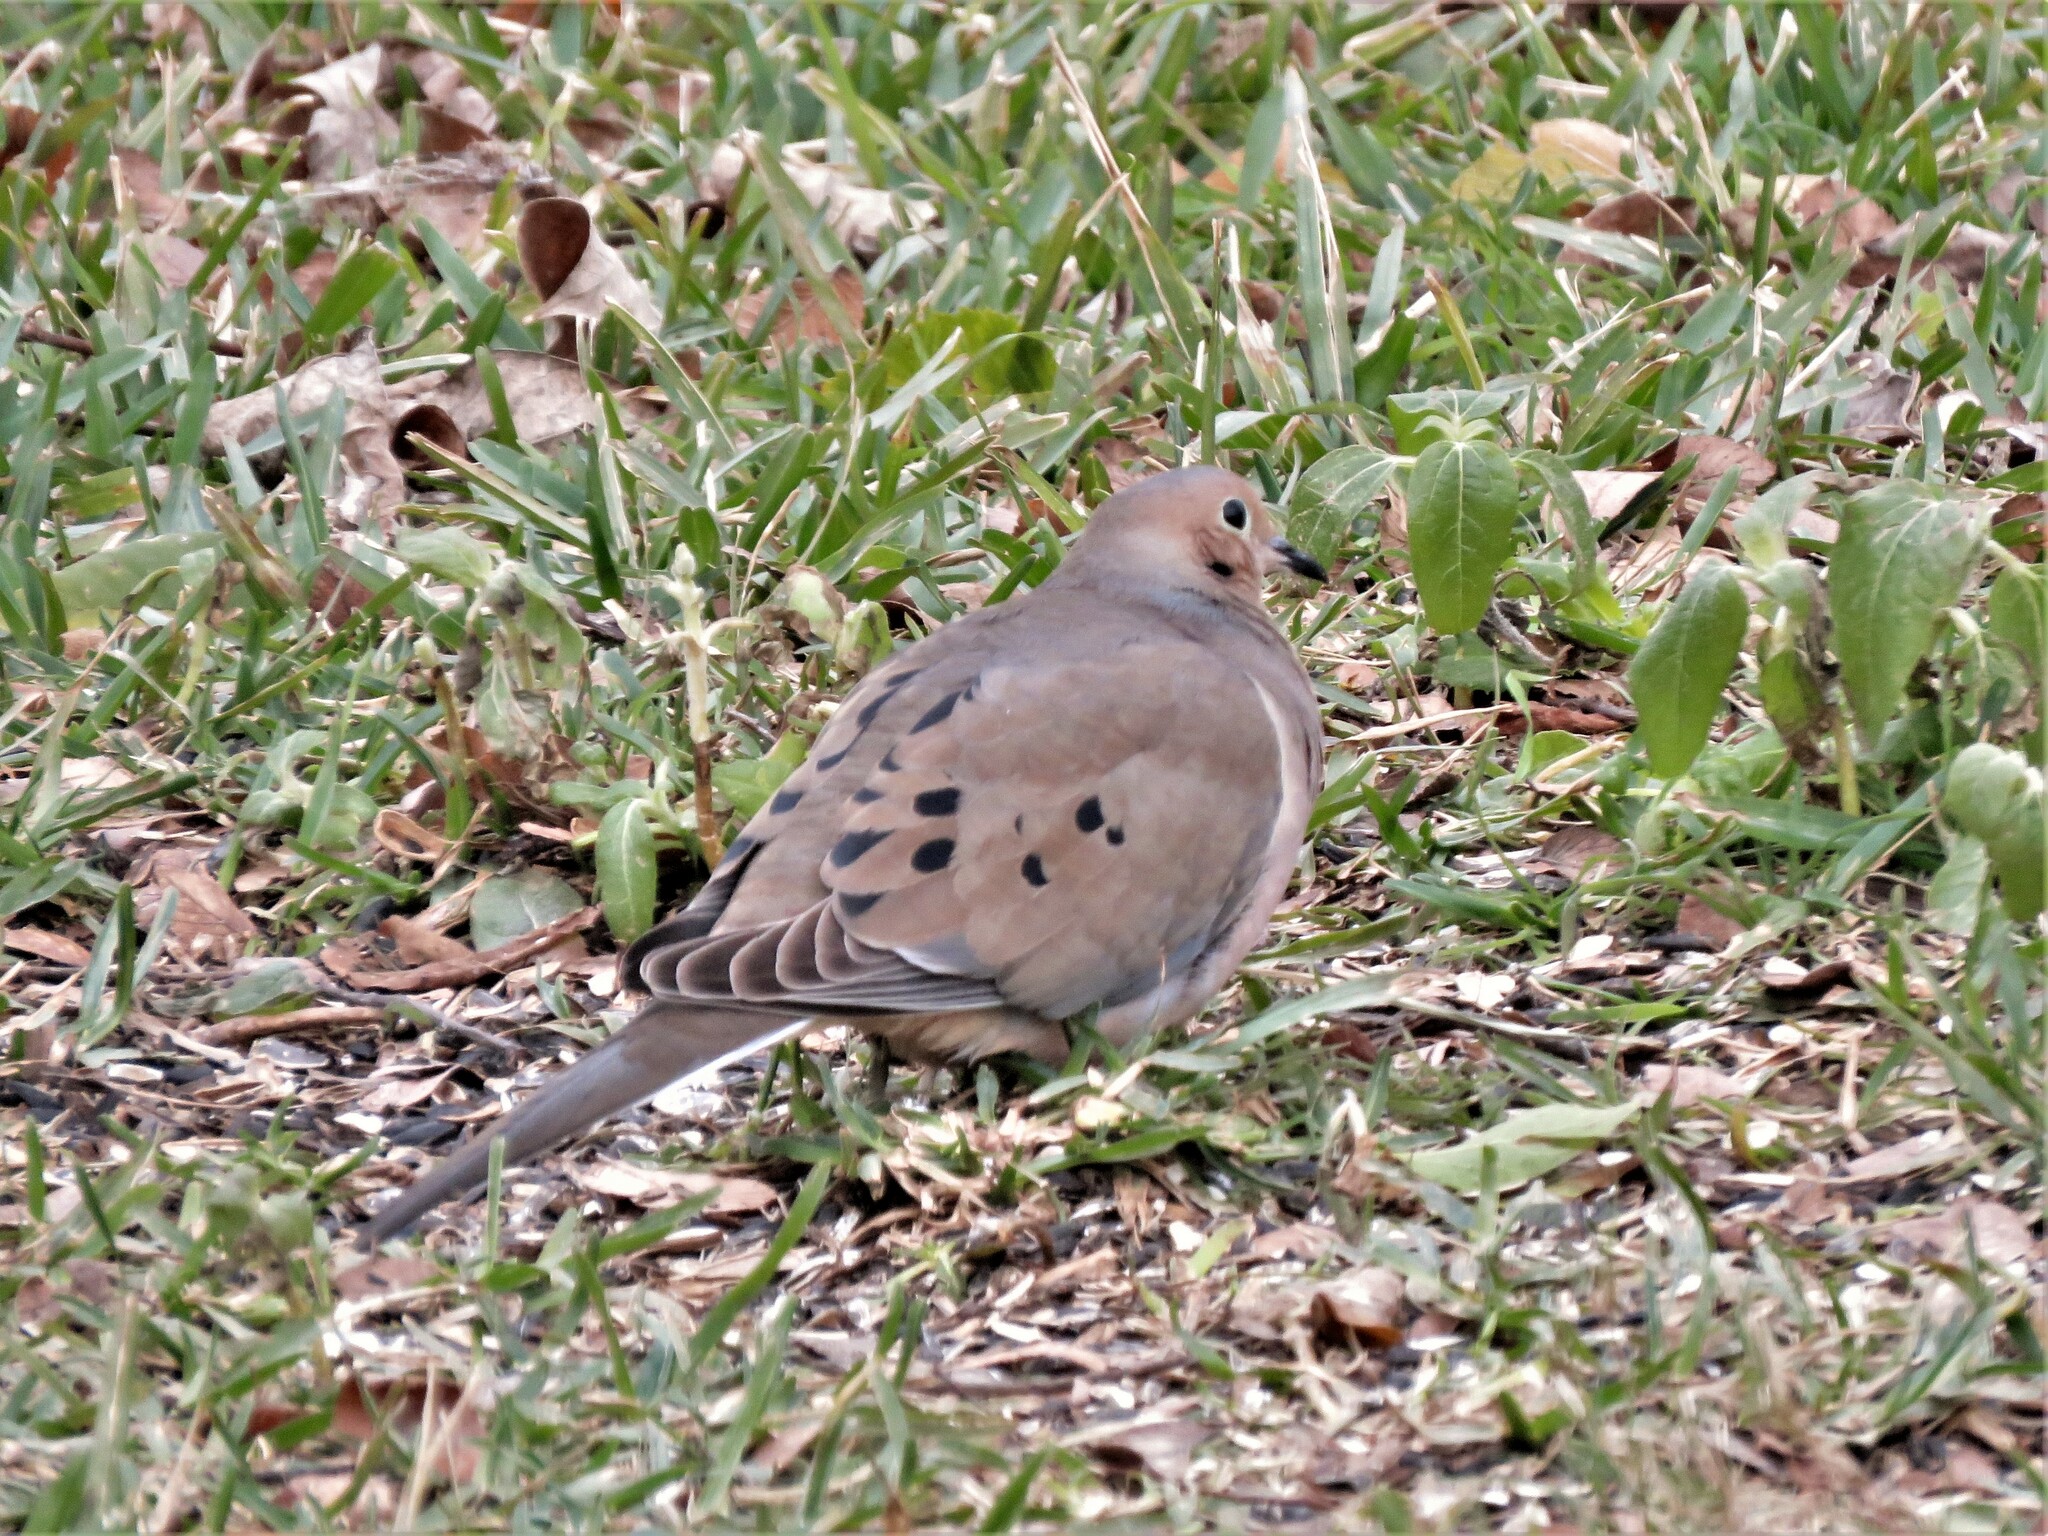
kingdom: Animalia
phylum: Chordata
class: Aves
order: Columbiformes
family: Columbidae
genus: Zenaida
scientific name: Zenaida macroura
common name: Mourning dove
